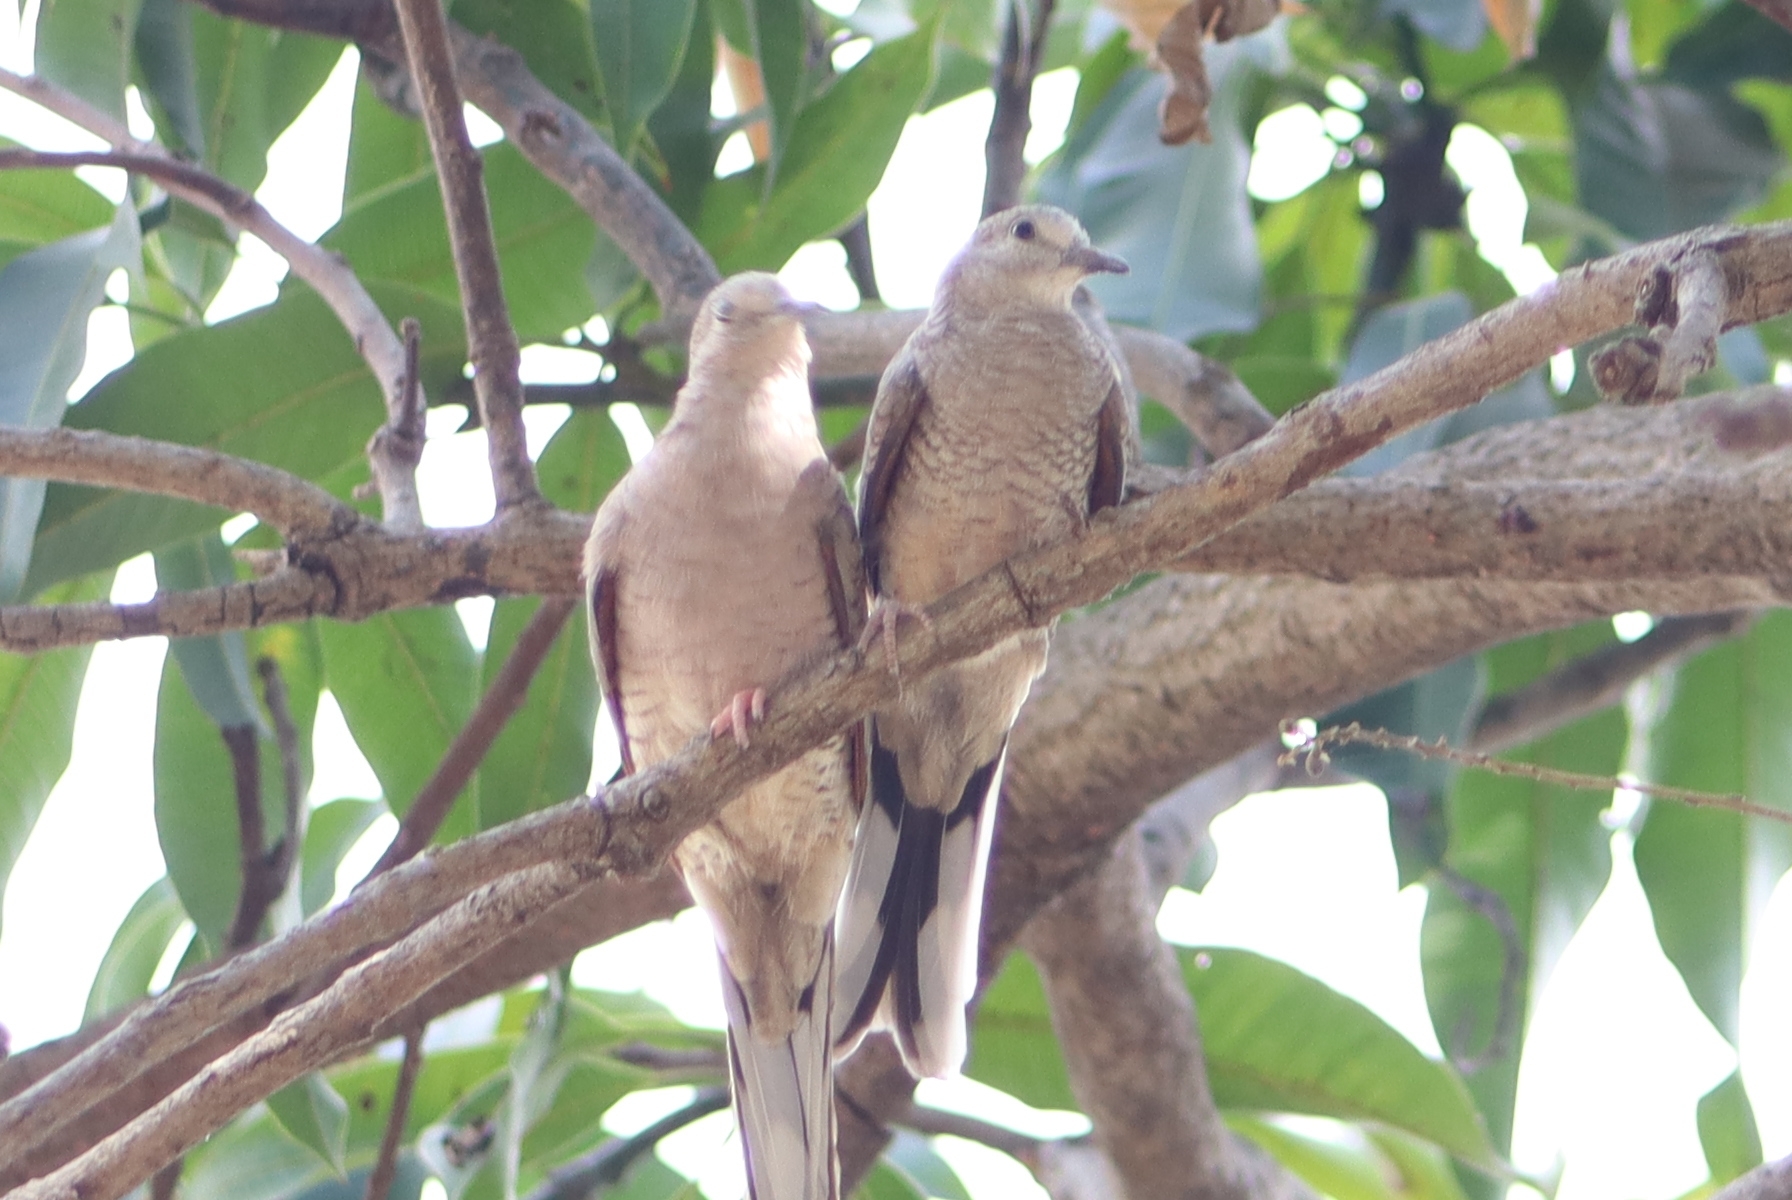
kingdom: Animalia
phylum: Chordata
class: Aves
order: Columbiformes
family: Columbidae
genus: Columbina
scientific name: Columbina inca
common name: Inca dove
